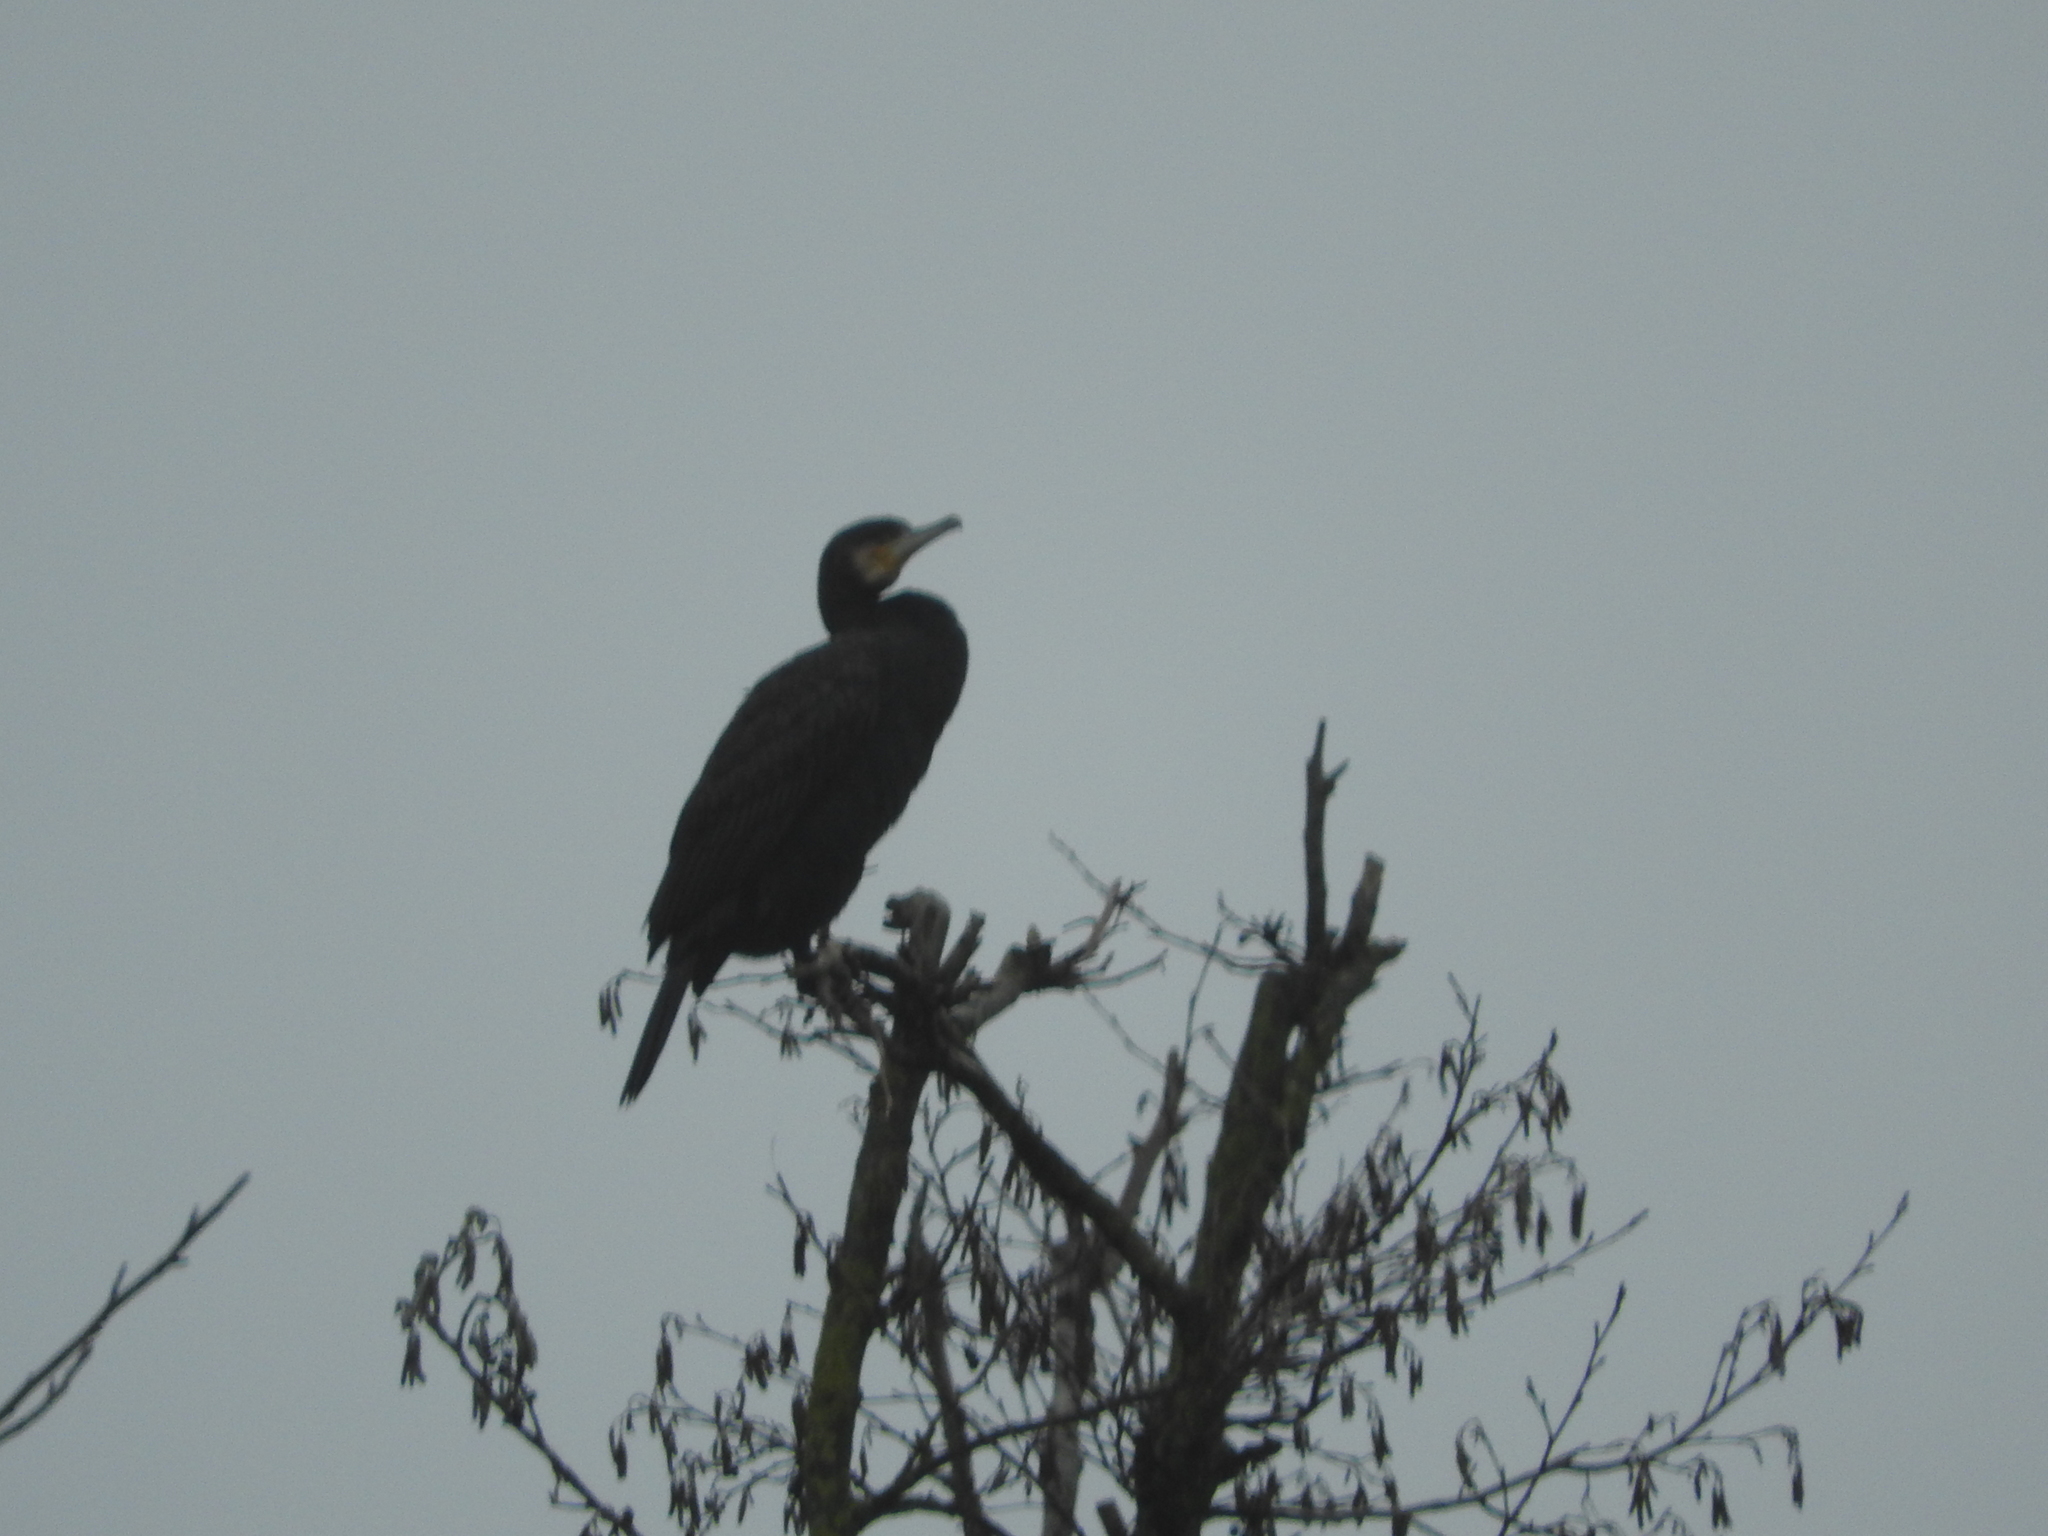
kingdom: Animalia
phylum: Chordata
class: Aves
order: Suliformes
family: Phalacrocoracidae
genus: Phalacrocorax
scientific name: Phalacrocorax carbo
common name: Great cormorant
